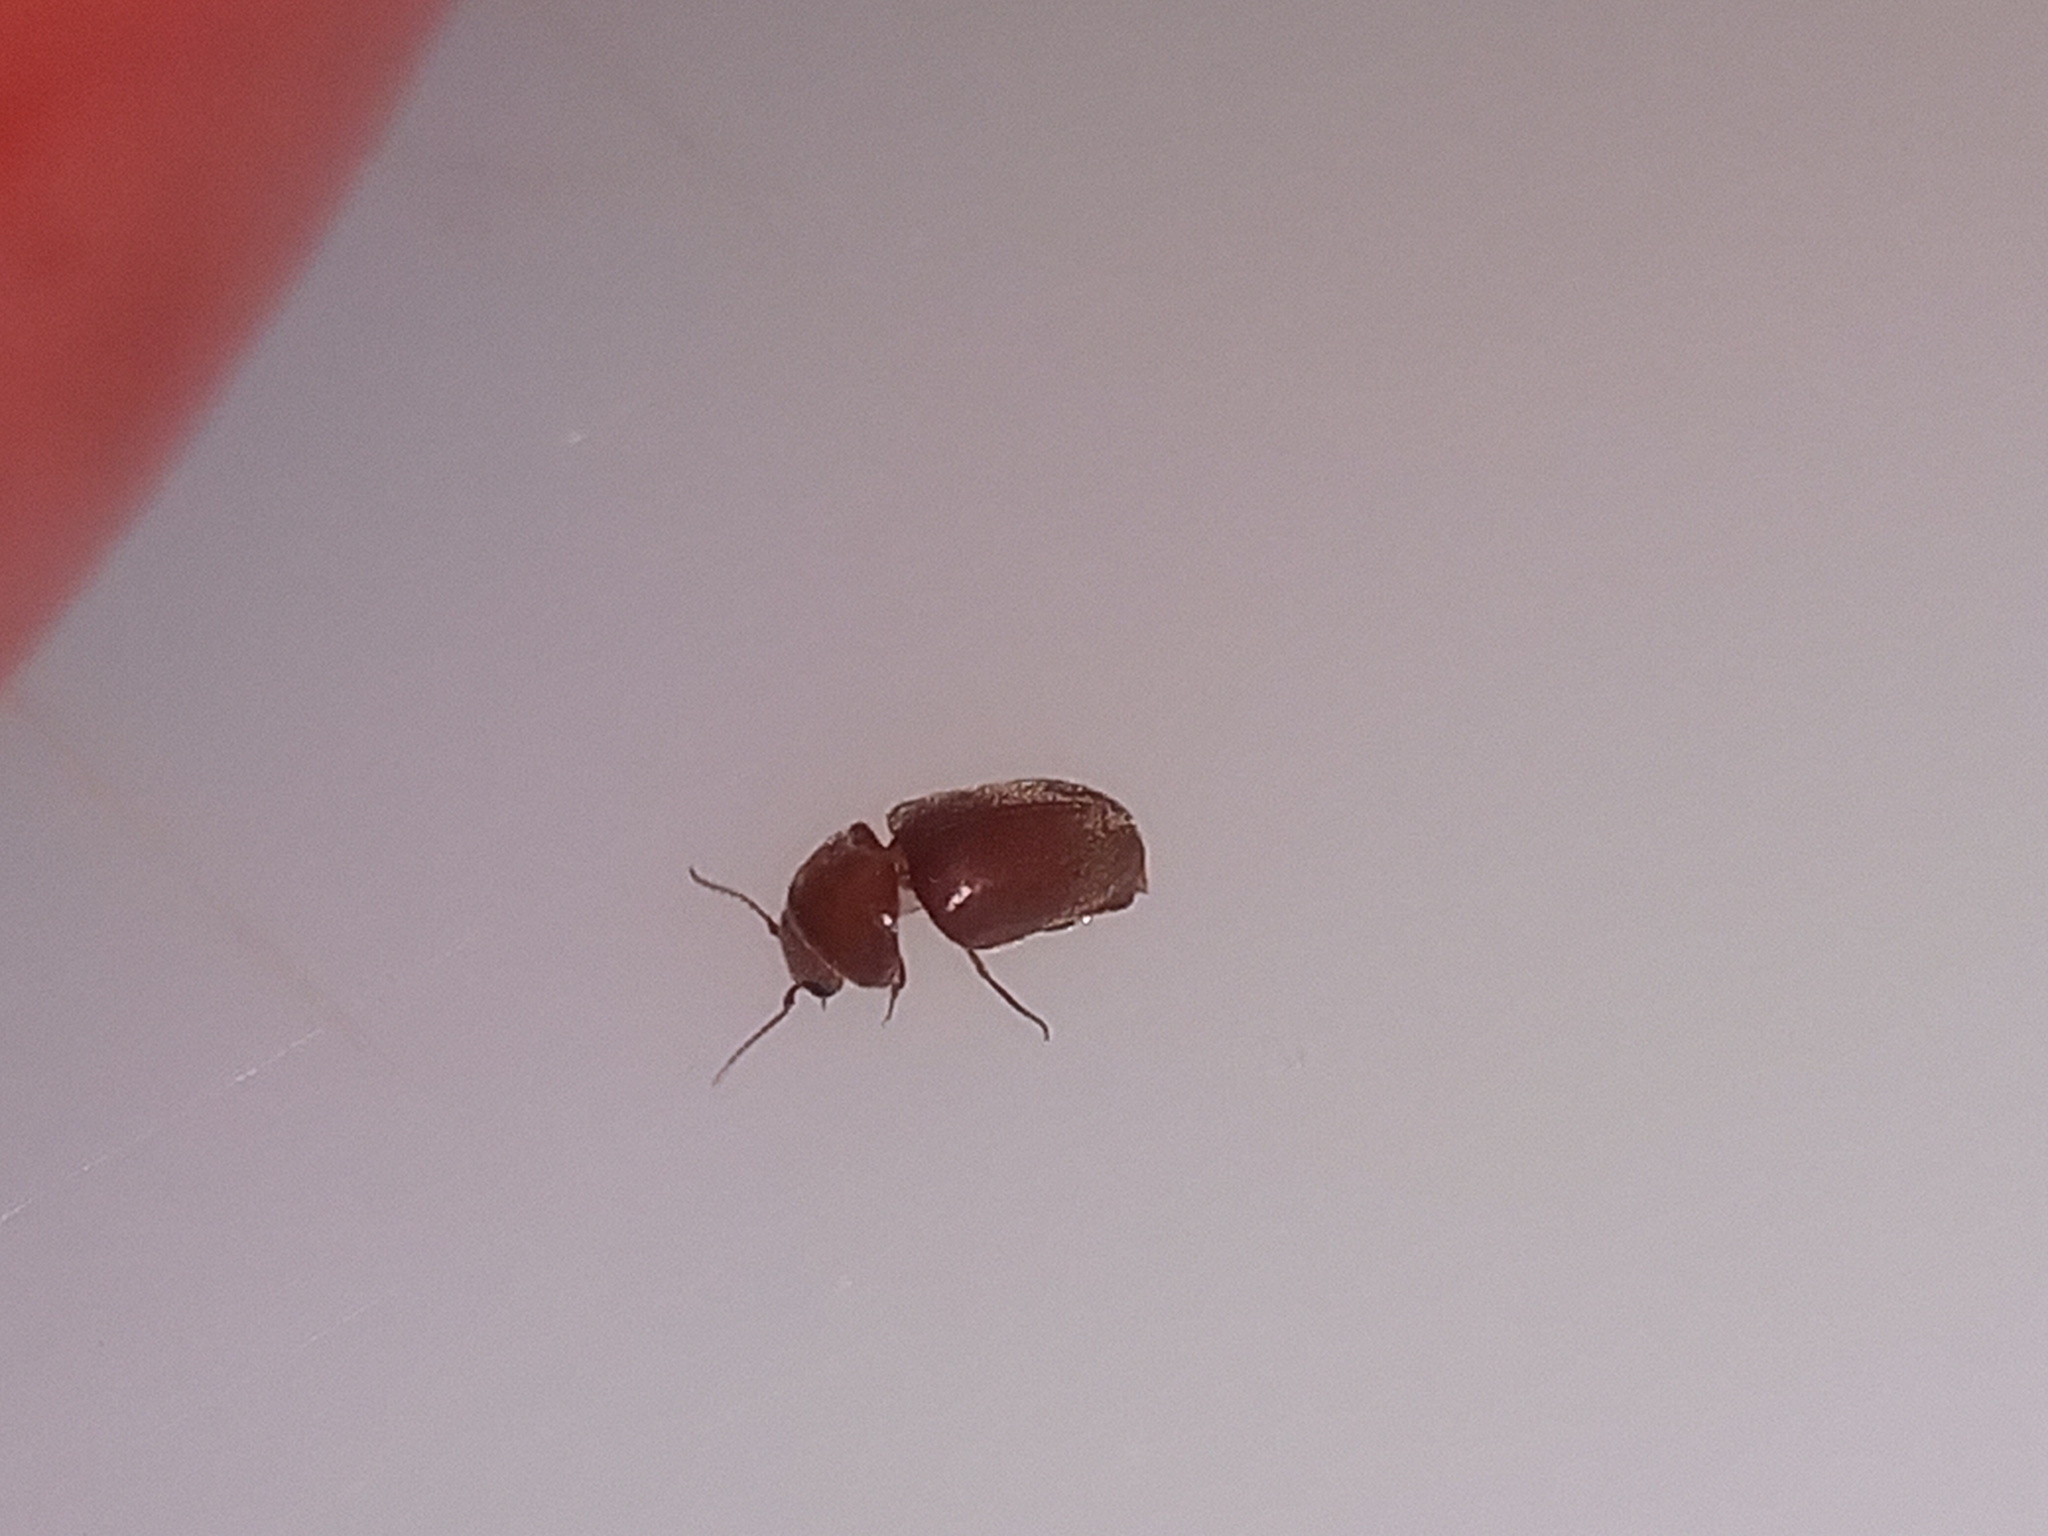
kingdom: Animalia
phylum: Arthropoda
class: Insecta
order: Coleoptera
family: Anobiidae
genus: Lasioderma
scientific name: Lasioderma serricorne
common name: Cigarette beetle
